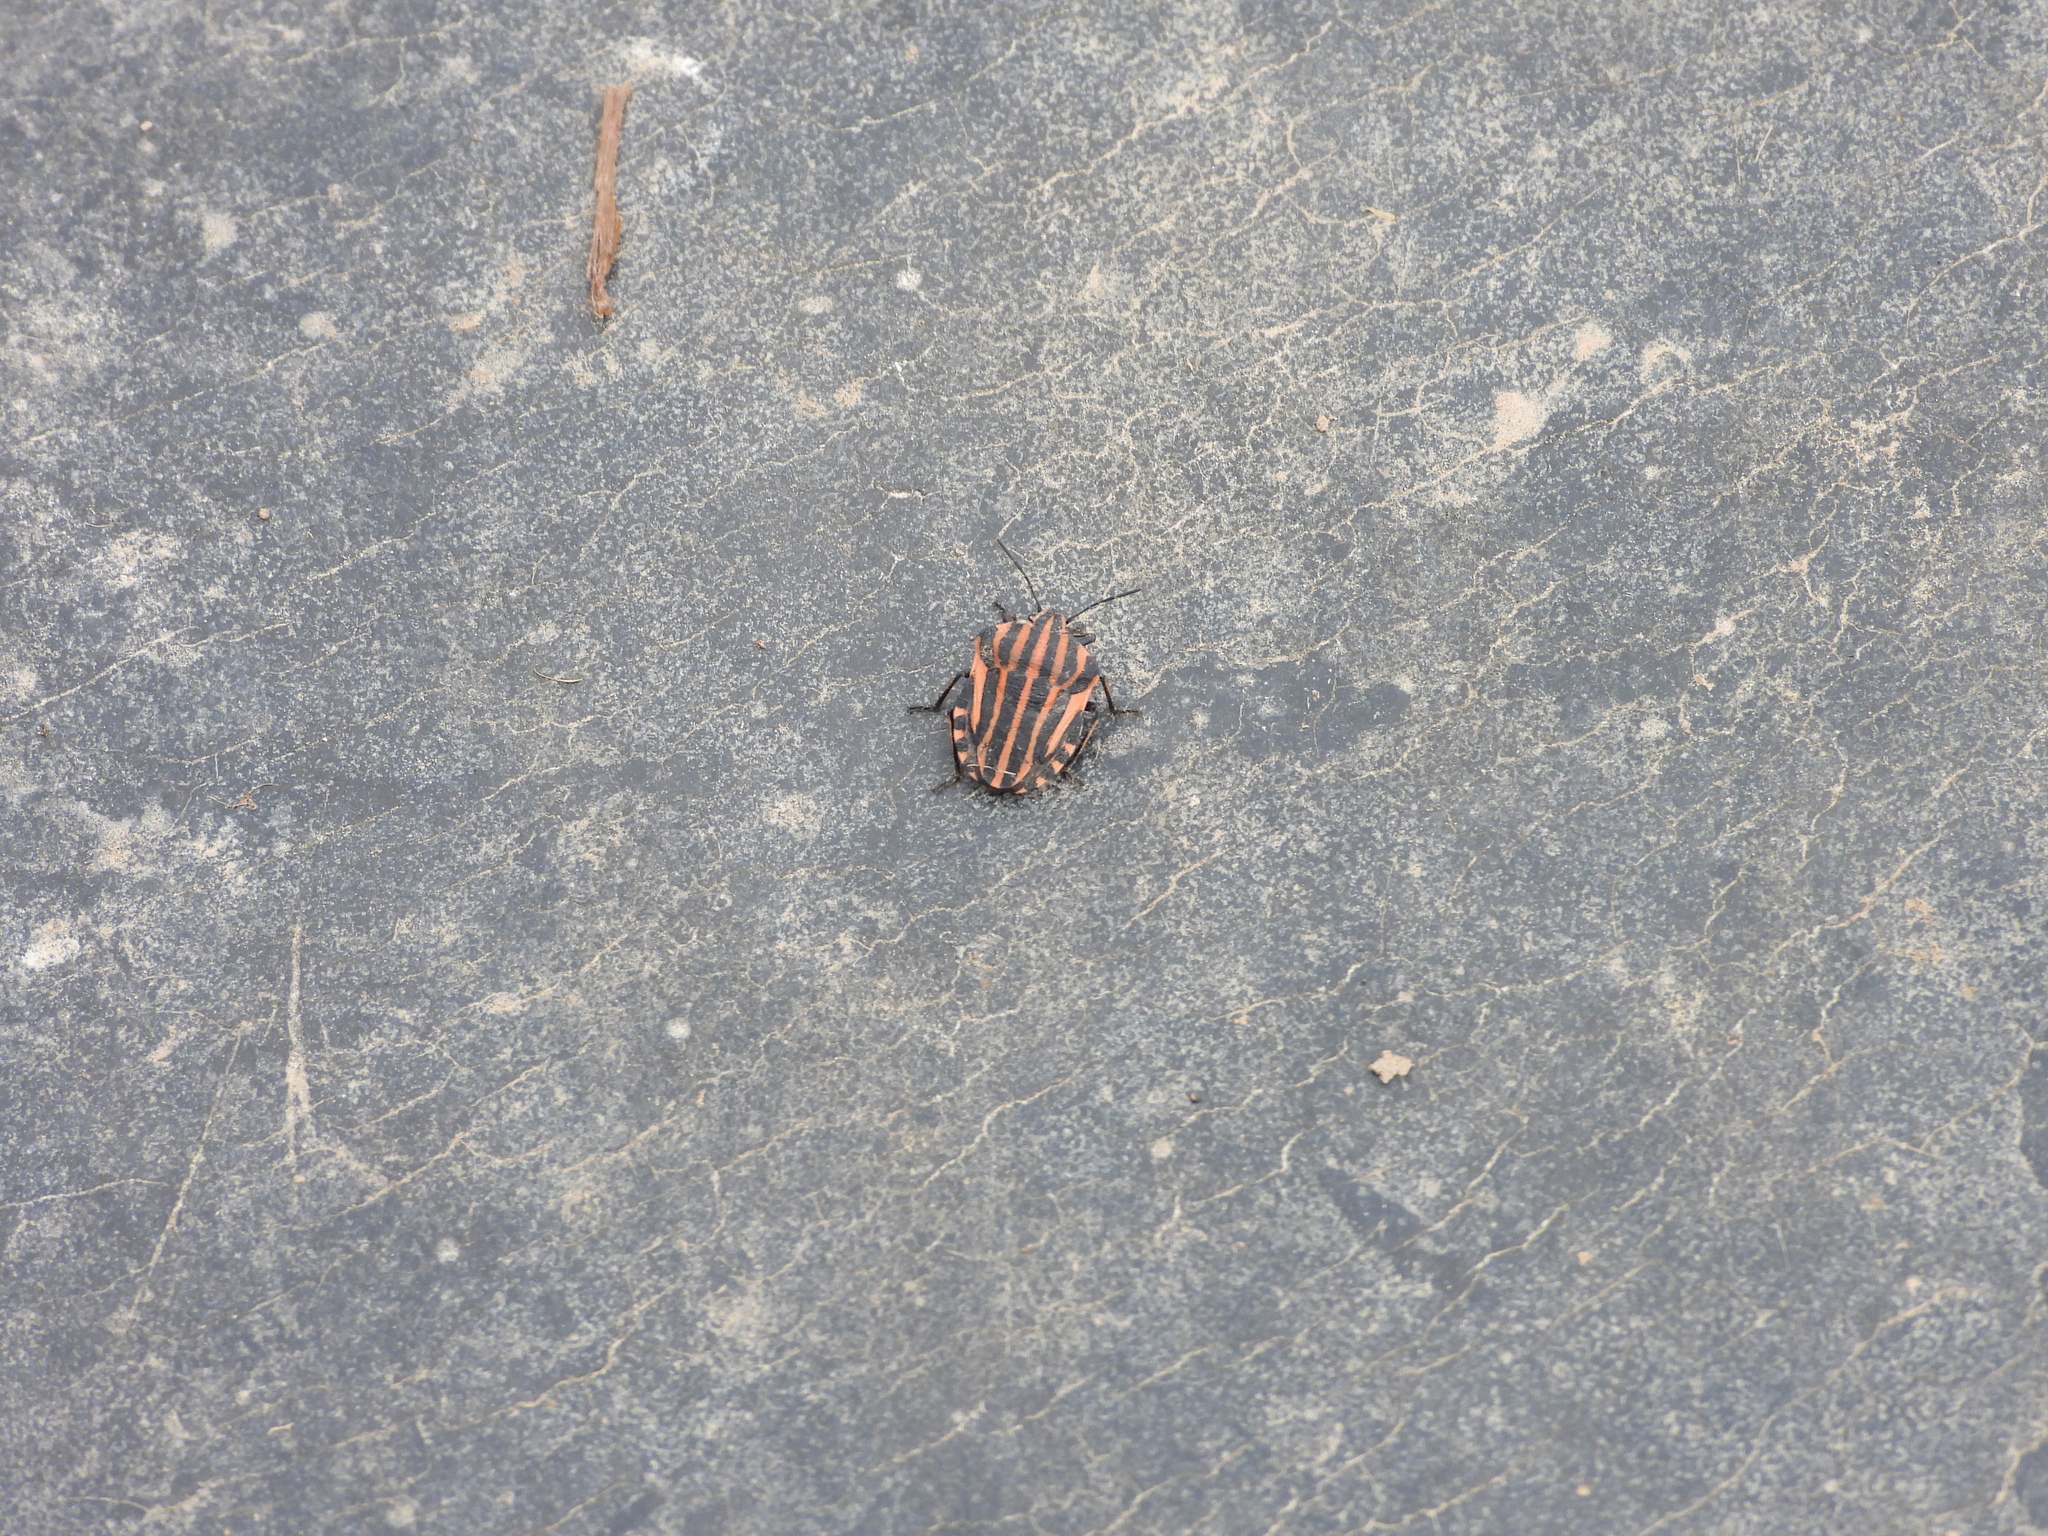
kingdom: Animalia
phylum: Arthropoda
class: Insecta
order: Hemiptera
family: Pentatomidae
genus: Graphosoma
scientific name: Graphosoma italicum
